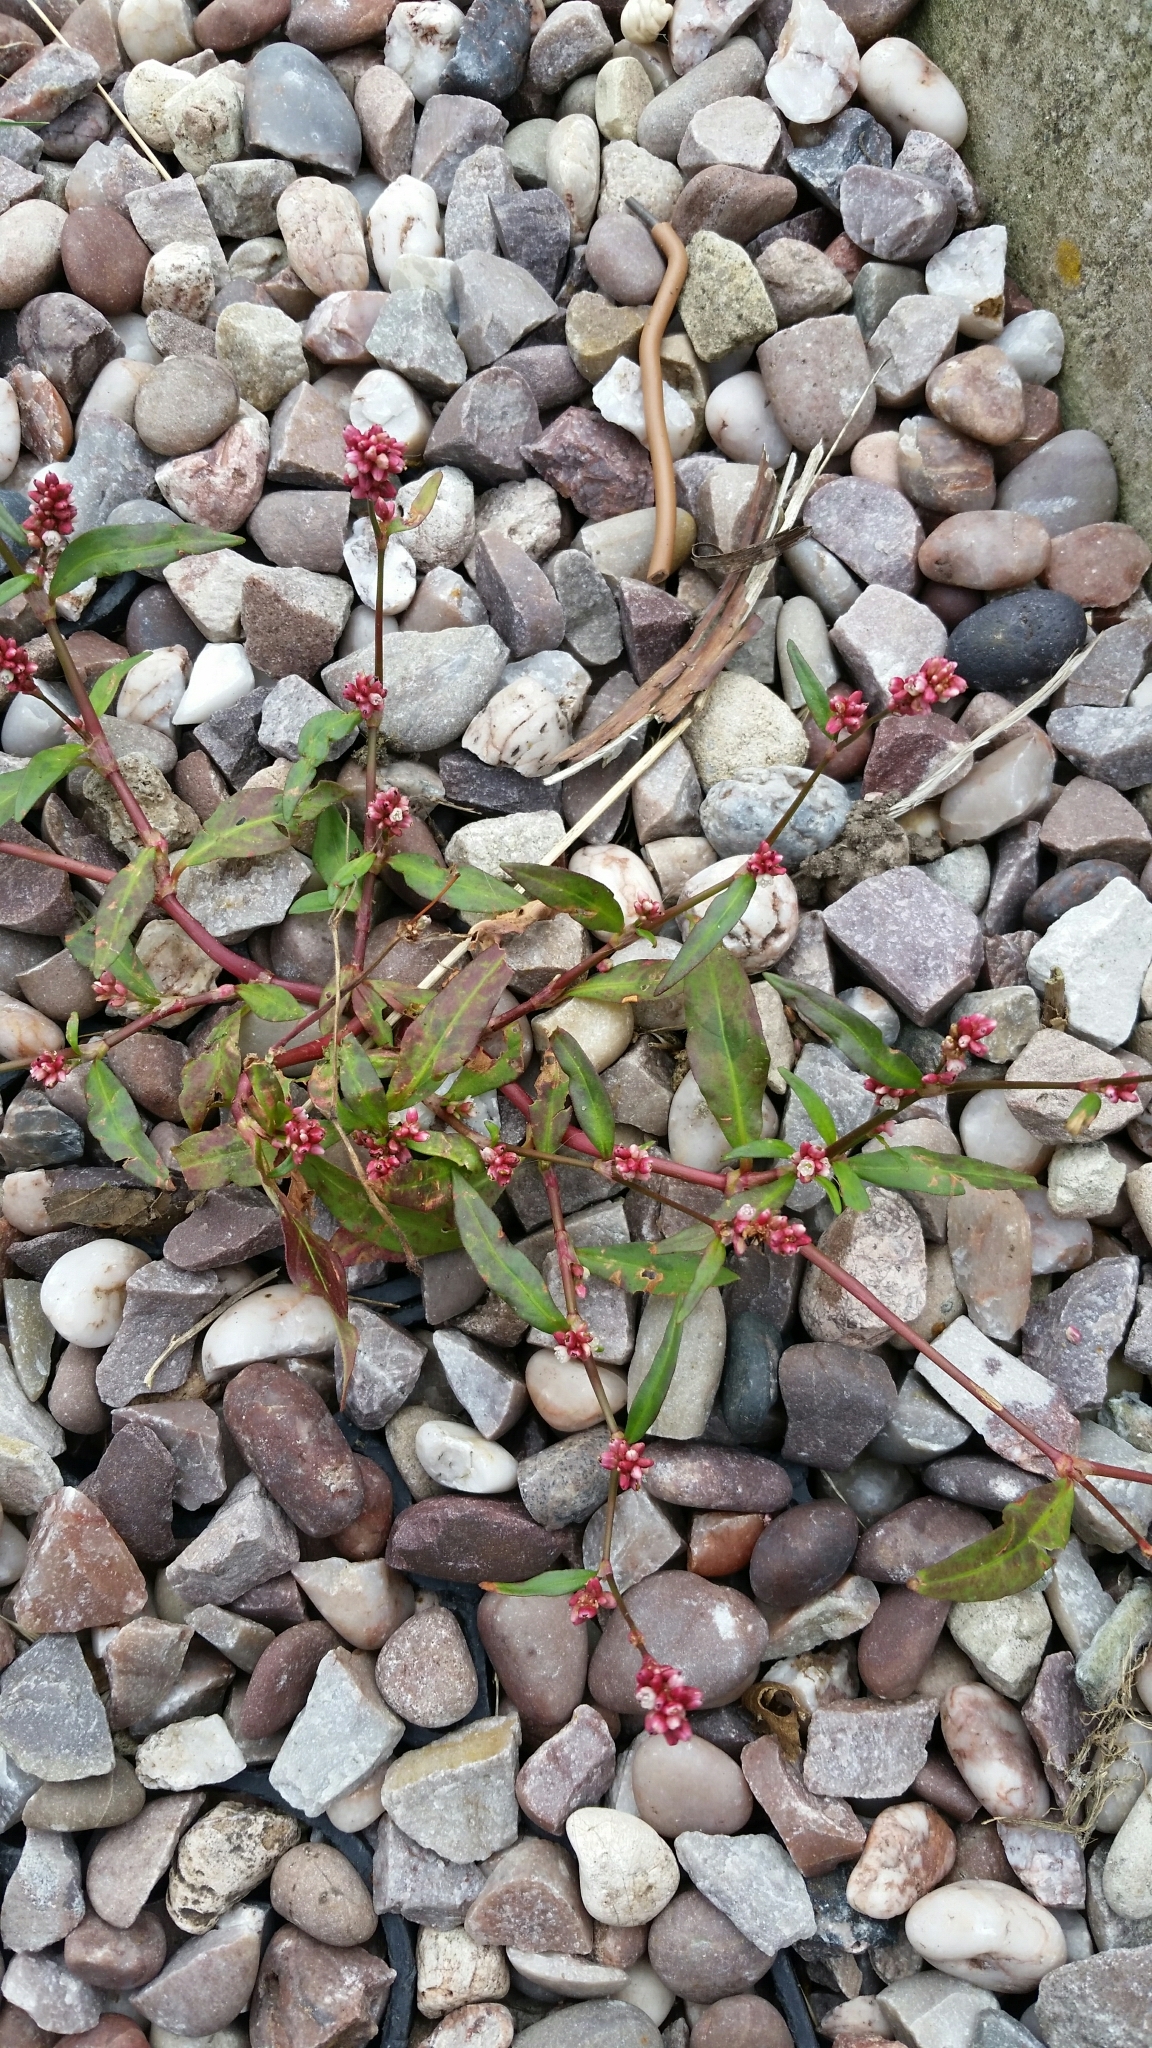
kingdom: Plantae
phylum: Tracheophyta
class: Magnoliopsida
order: Caryophyllales
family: Polygonaceae
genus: Persicaria
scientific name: Persicaria maculosa
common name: Redshank
